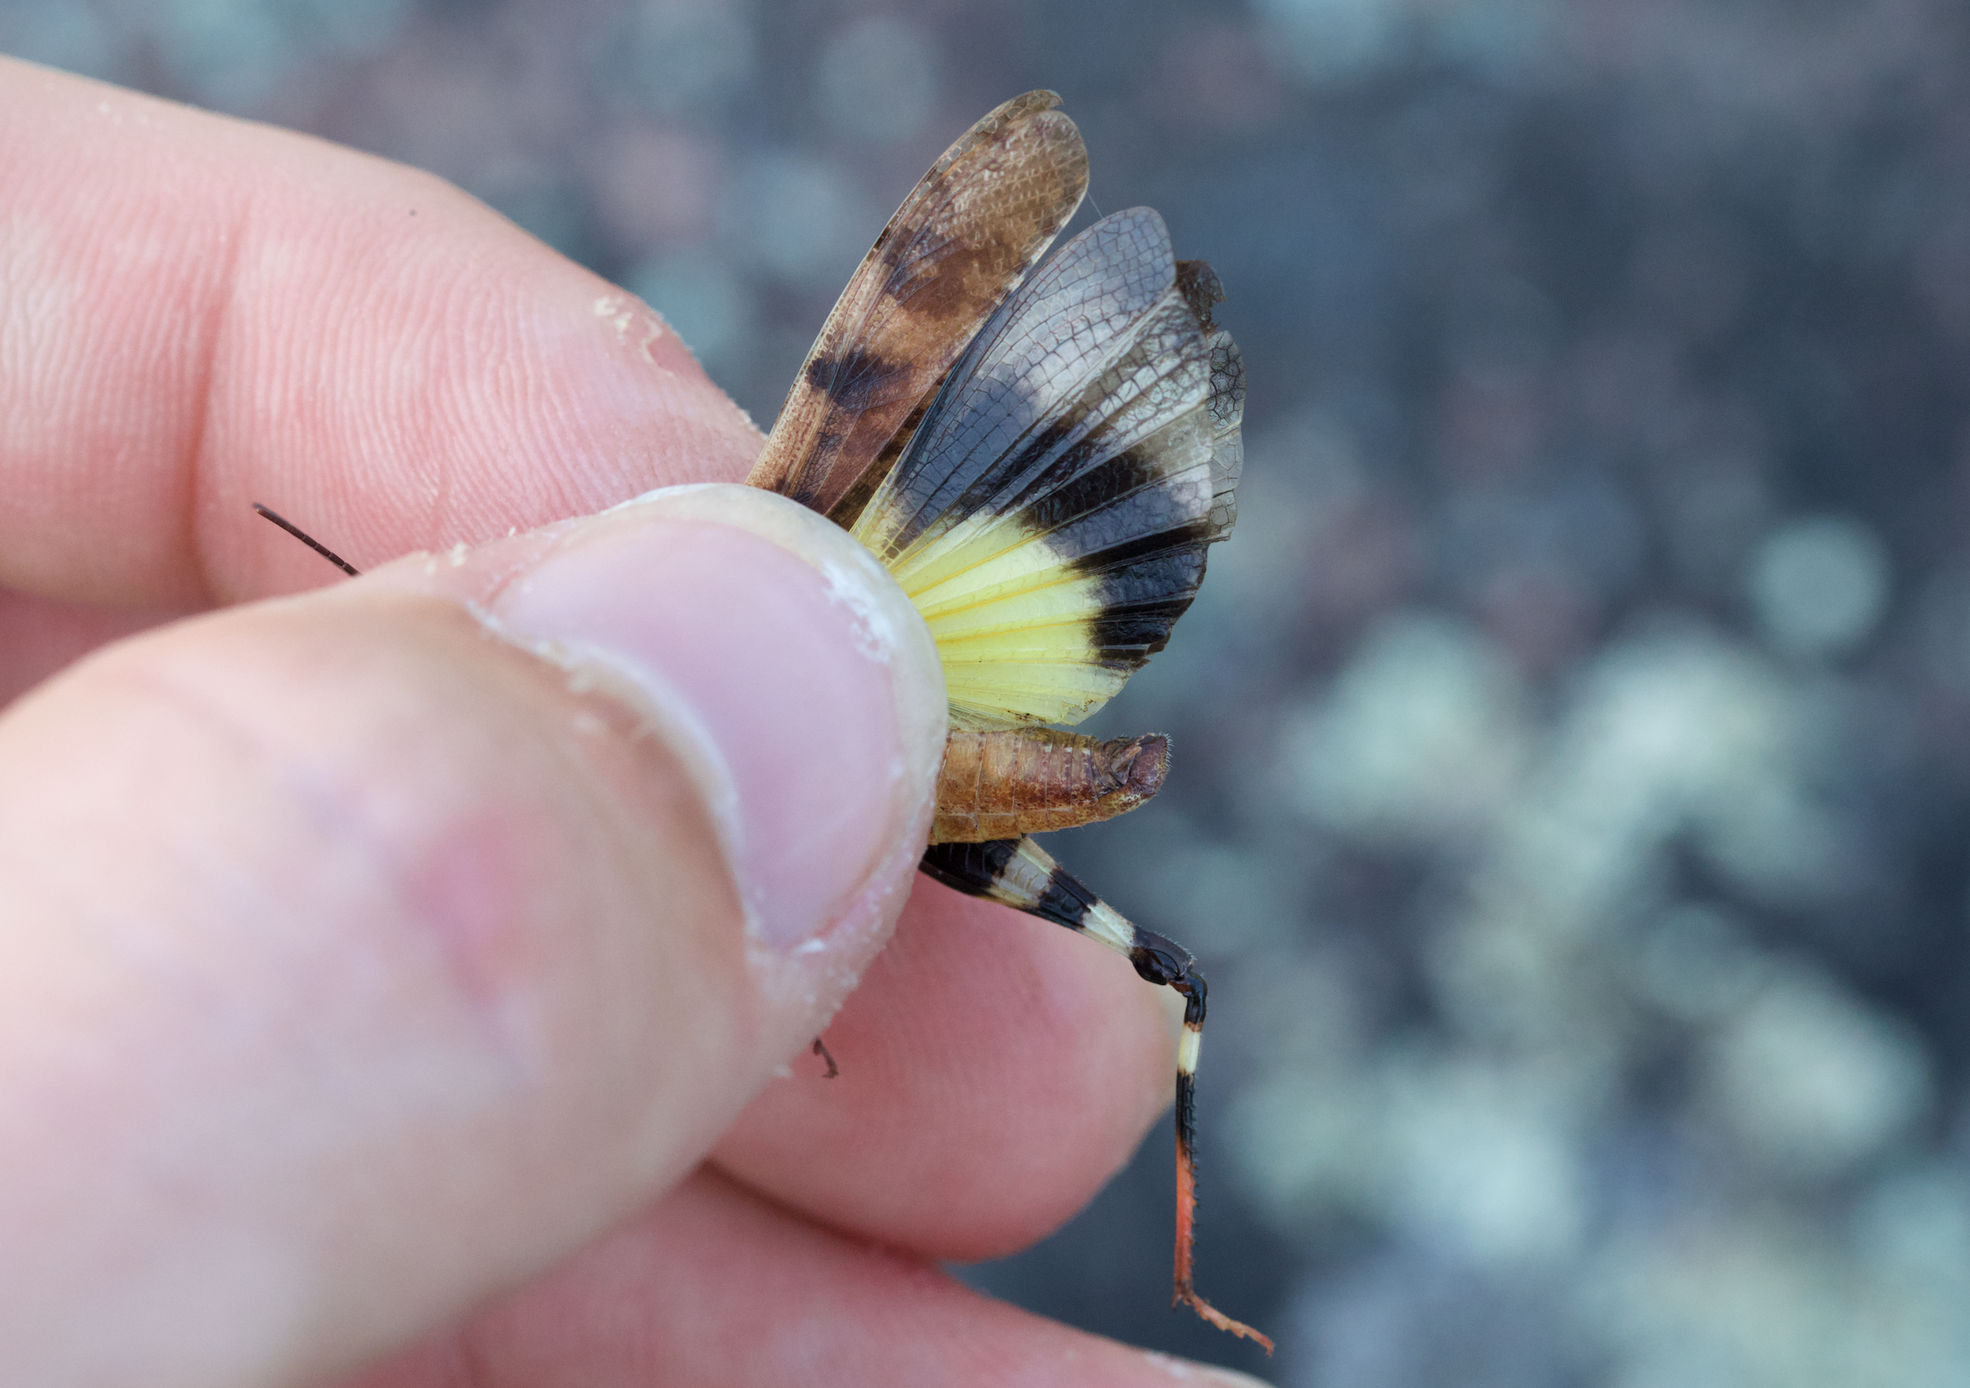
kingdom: Animalia
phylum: Arthropoda
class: Insecta
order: Orthoptera
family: Acrididae
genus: Spharagemon
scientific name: Spharagemon bolli
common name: Boll's grasshopper
